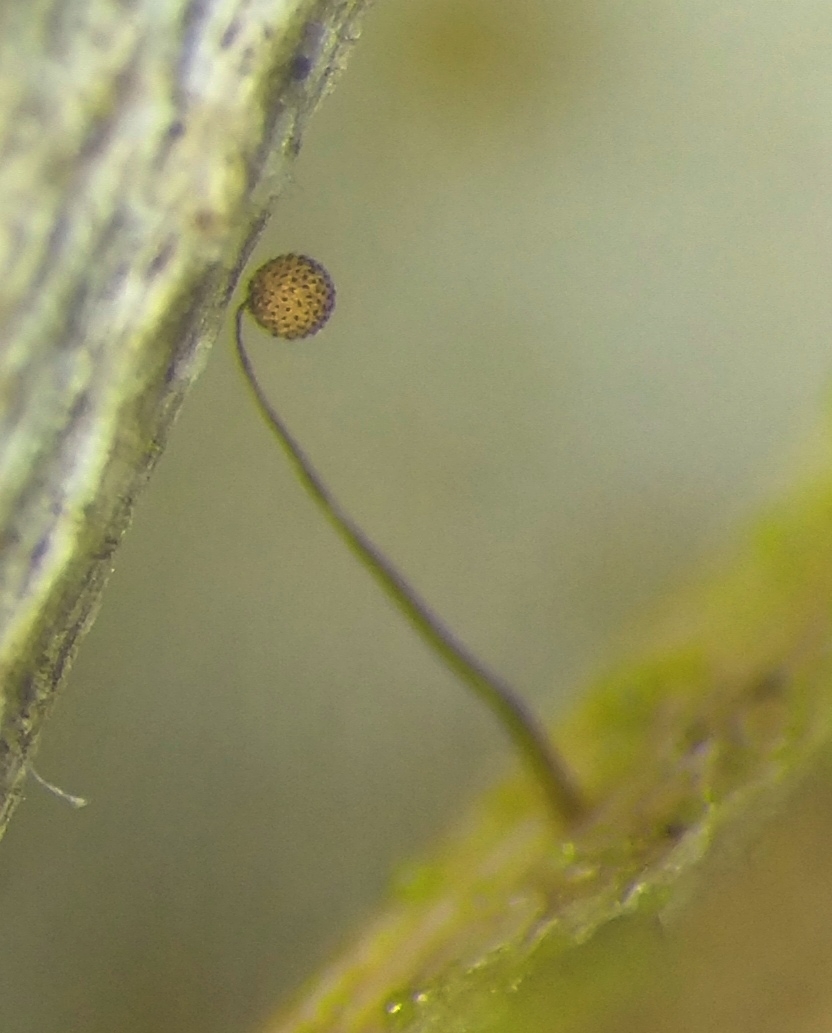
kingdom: Protozoa
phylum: Mycetozoa
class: Myxomycetes
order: Cribrariales
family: Cribrariaceae
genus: Cribraria
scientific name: Cribraria microcarpa
